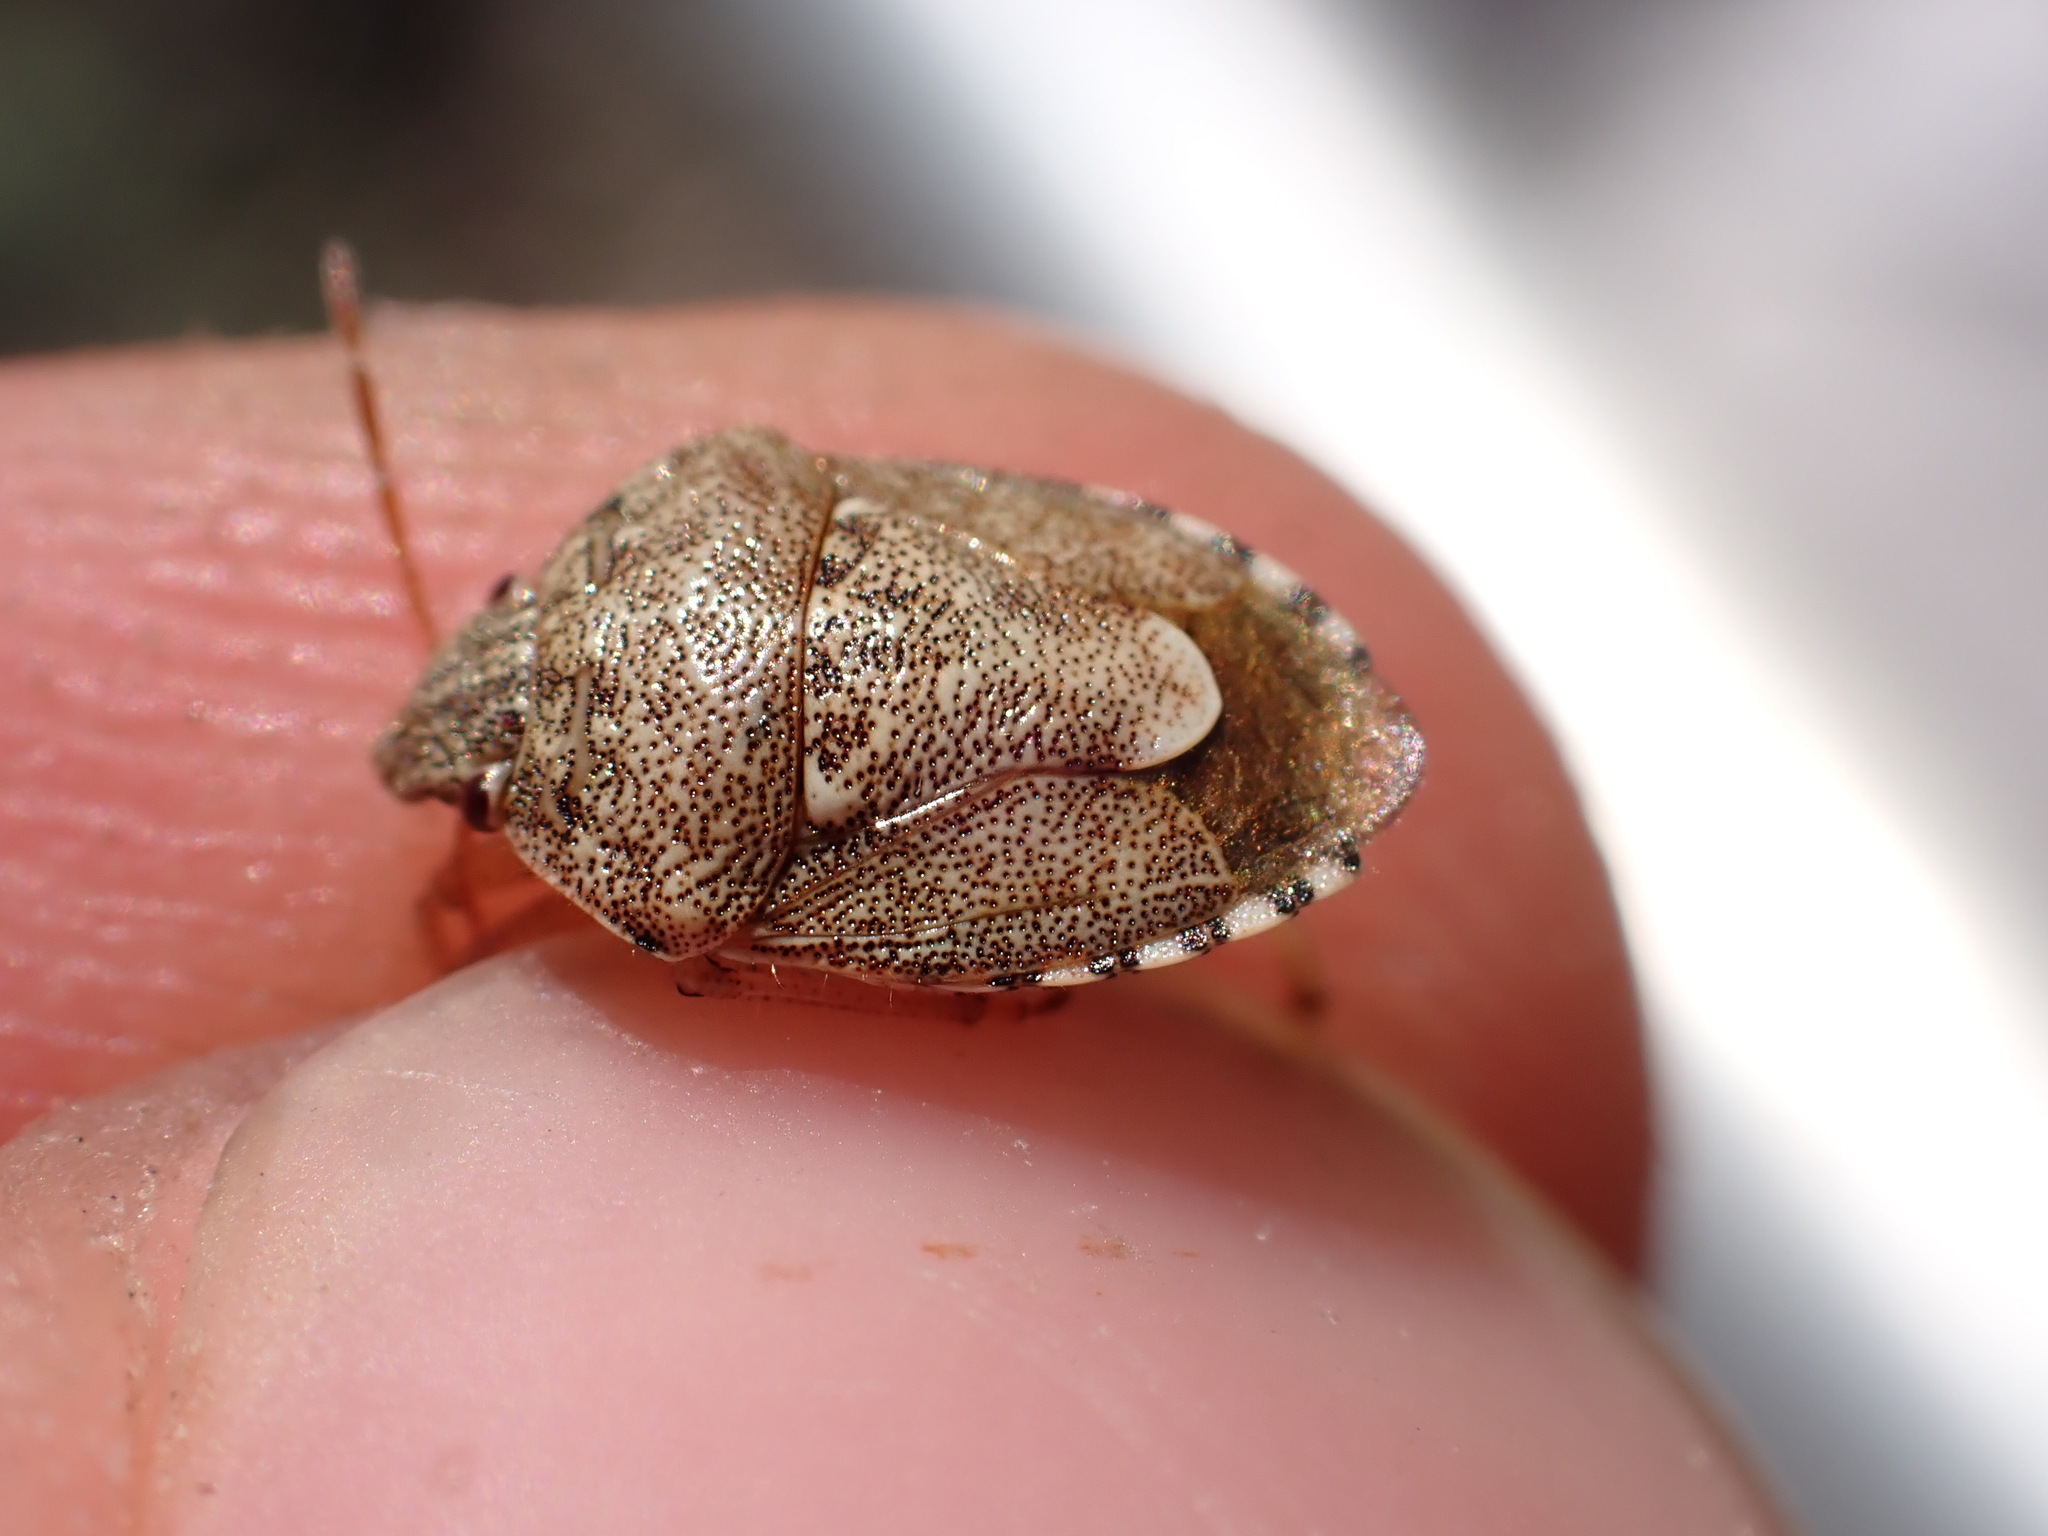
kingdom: Animalia
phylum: Arthropoda
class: Insecta
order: Hemiptera
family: Pentatomidae
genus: Staria
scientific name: Staria lunata
